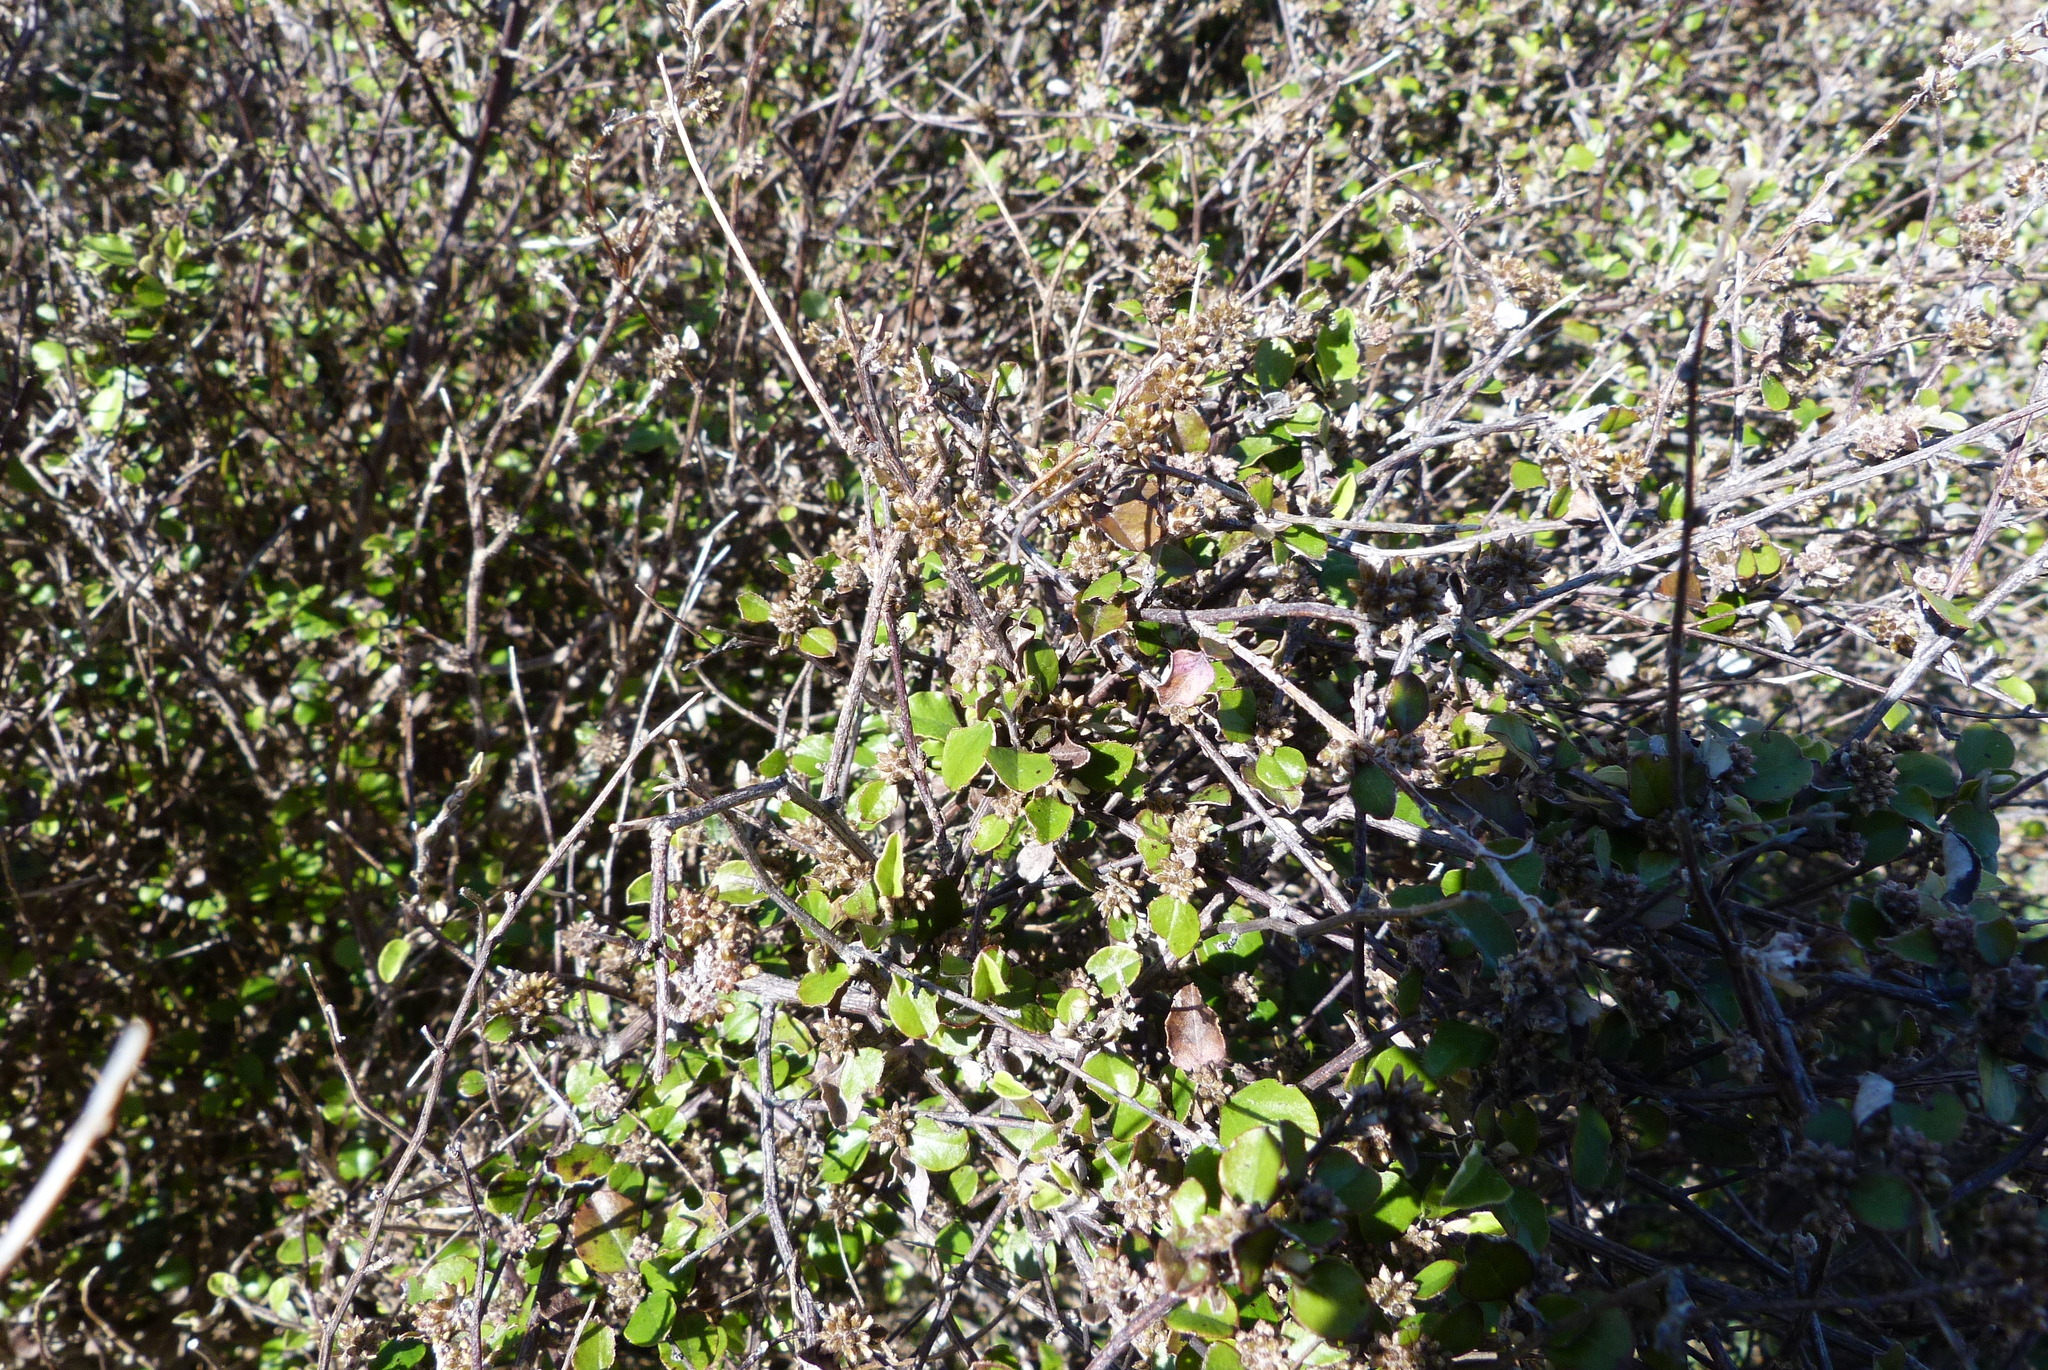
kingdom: Plantae
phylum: Tracheophyta
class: Magnoliopsida
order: Asterales
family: Asteraceae
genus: Ozothamnus
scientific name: Ozothamnus glomeratus
